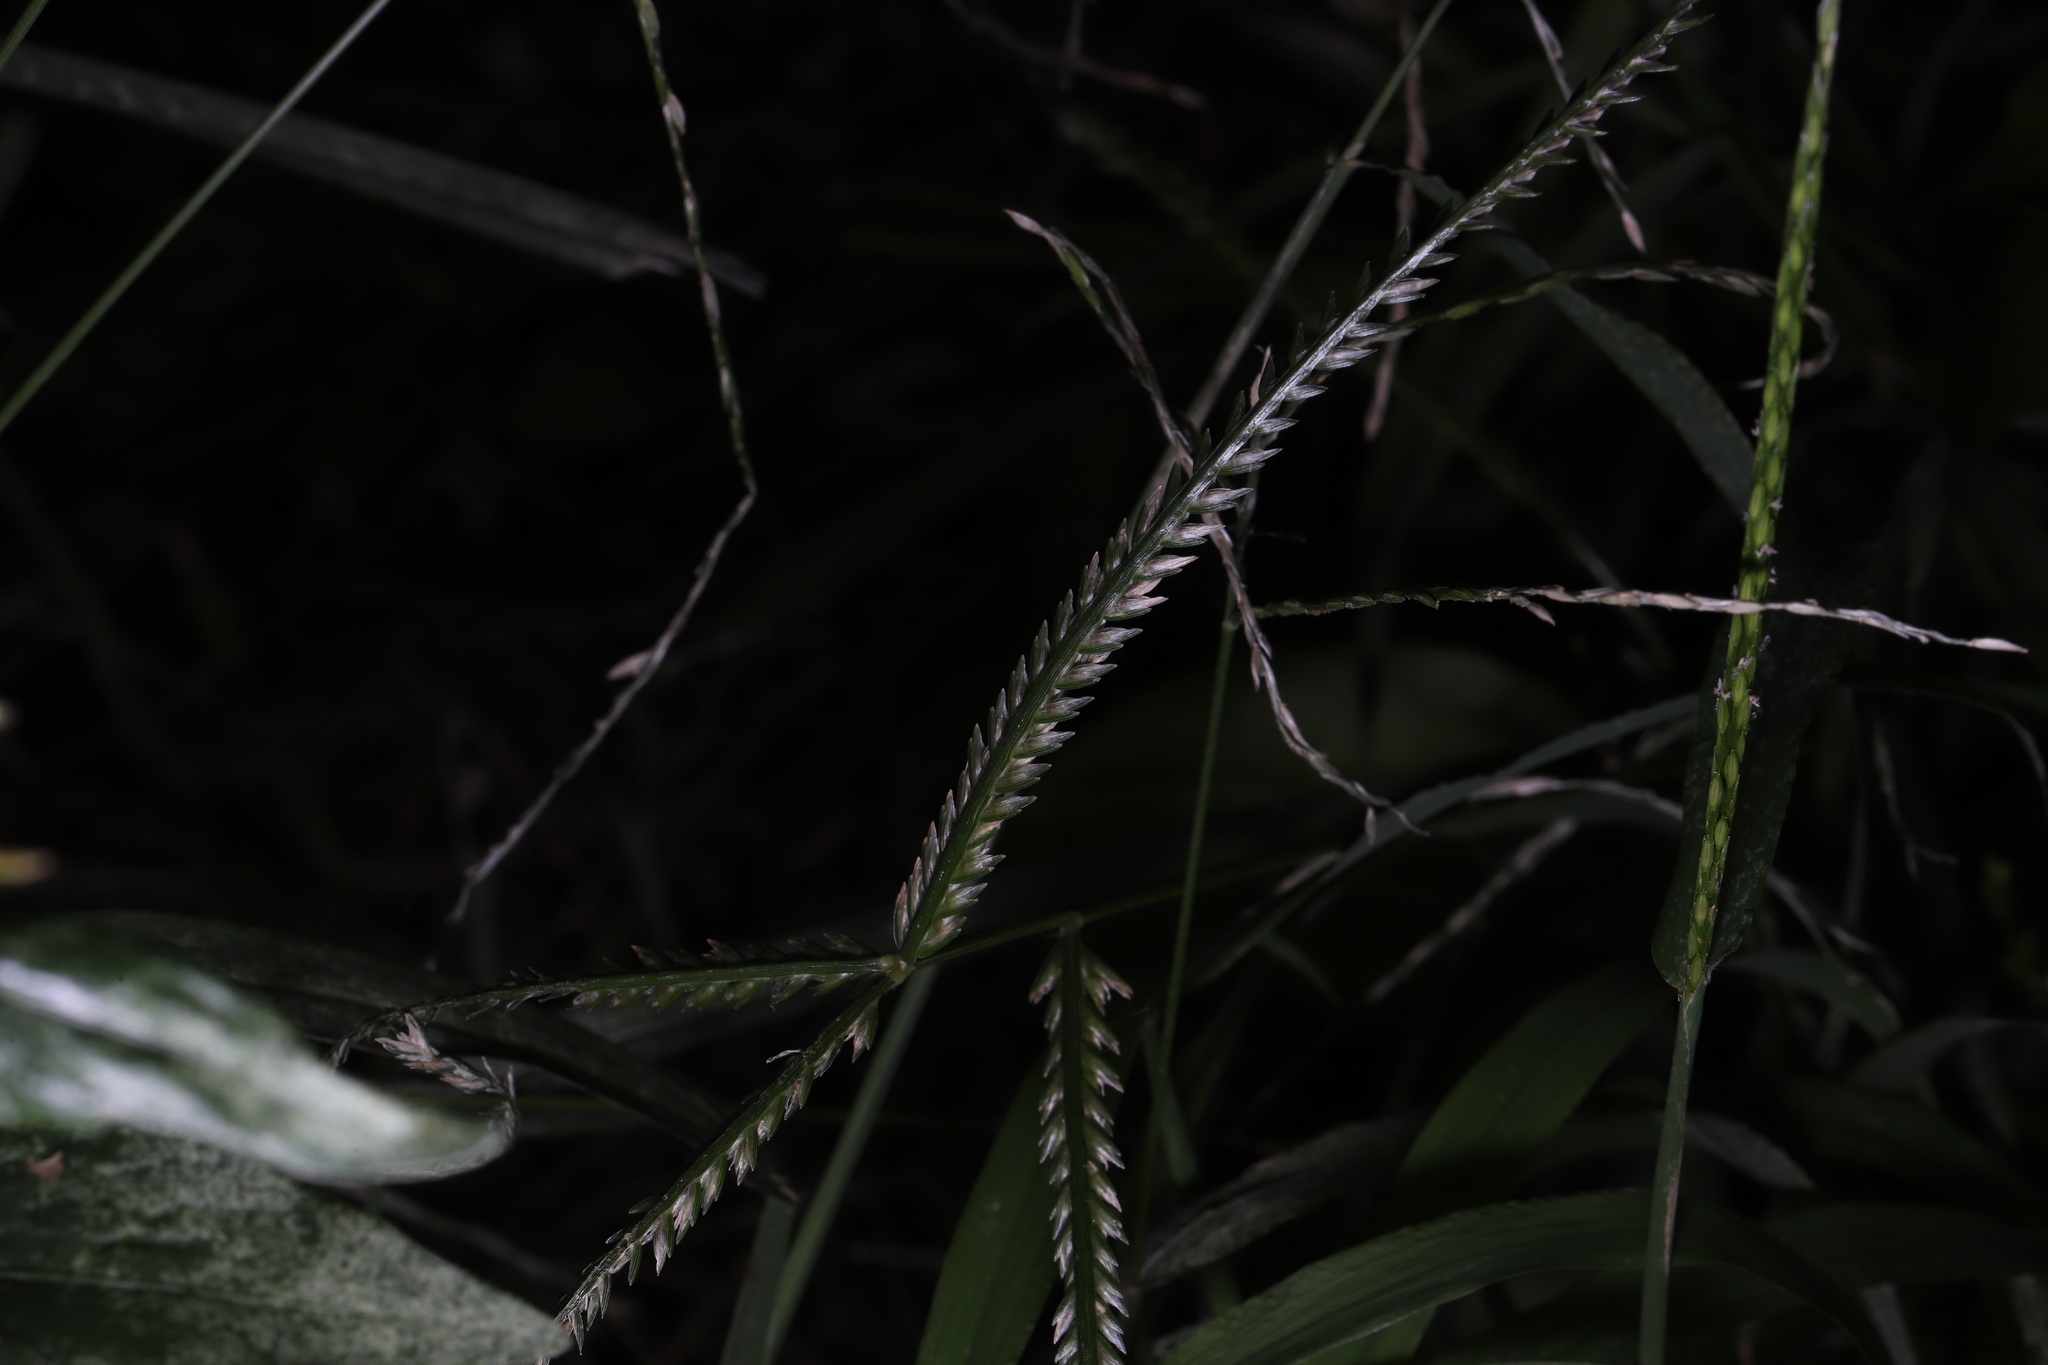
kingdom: Plantae
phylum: Tracheophyta
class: Liliopsida
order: Poales
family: Poaceae
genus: Eleusine
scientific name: Eleusine indica
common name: Yard-grass
